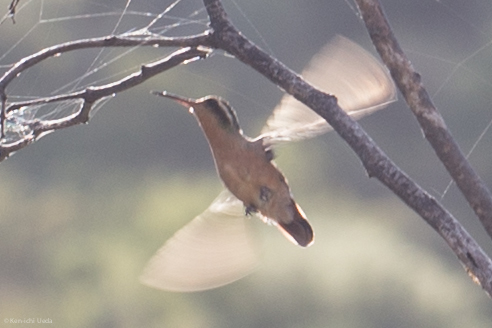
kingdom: Animalia
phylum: Chordata
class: Aves
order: Apodiformes
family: Trochilidae
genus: Basilinna
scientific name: Basilinna xantusii
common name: Xantus's hummingbird
